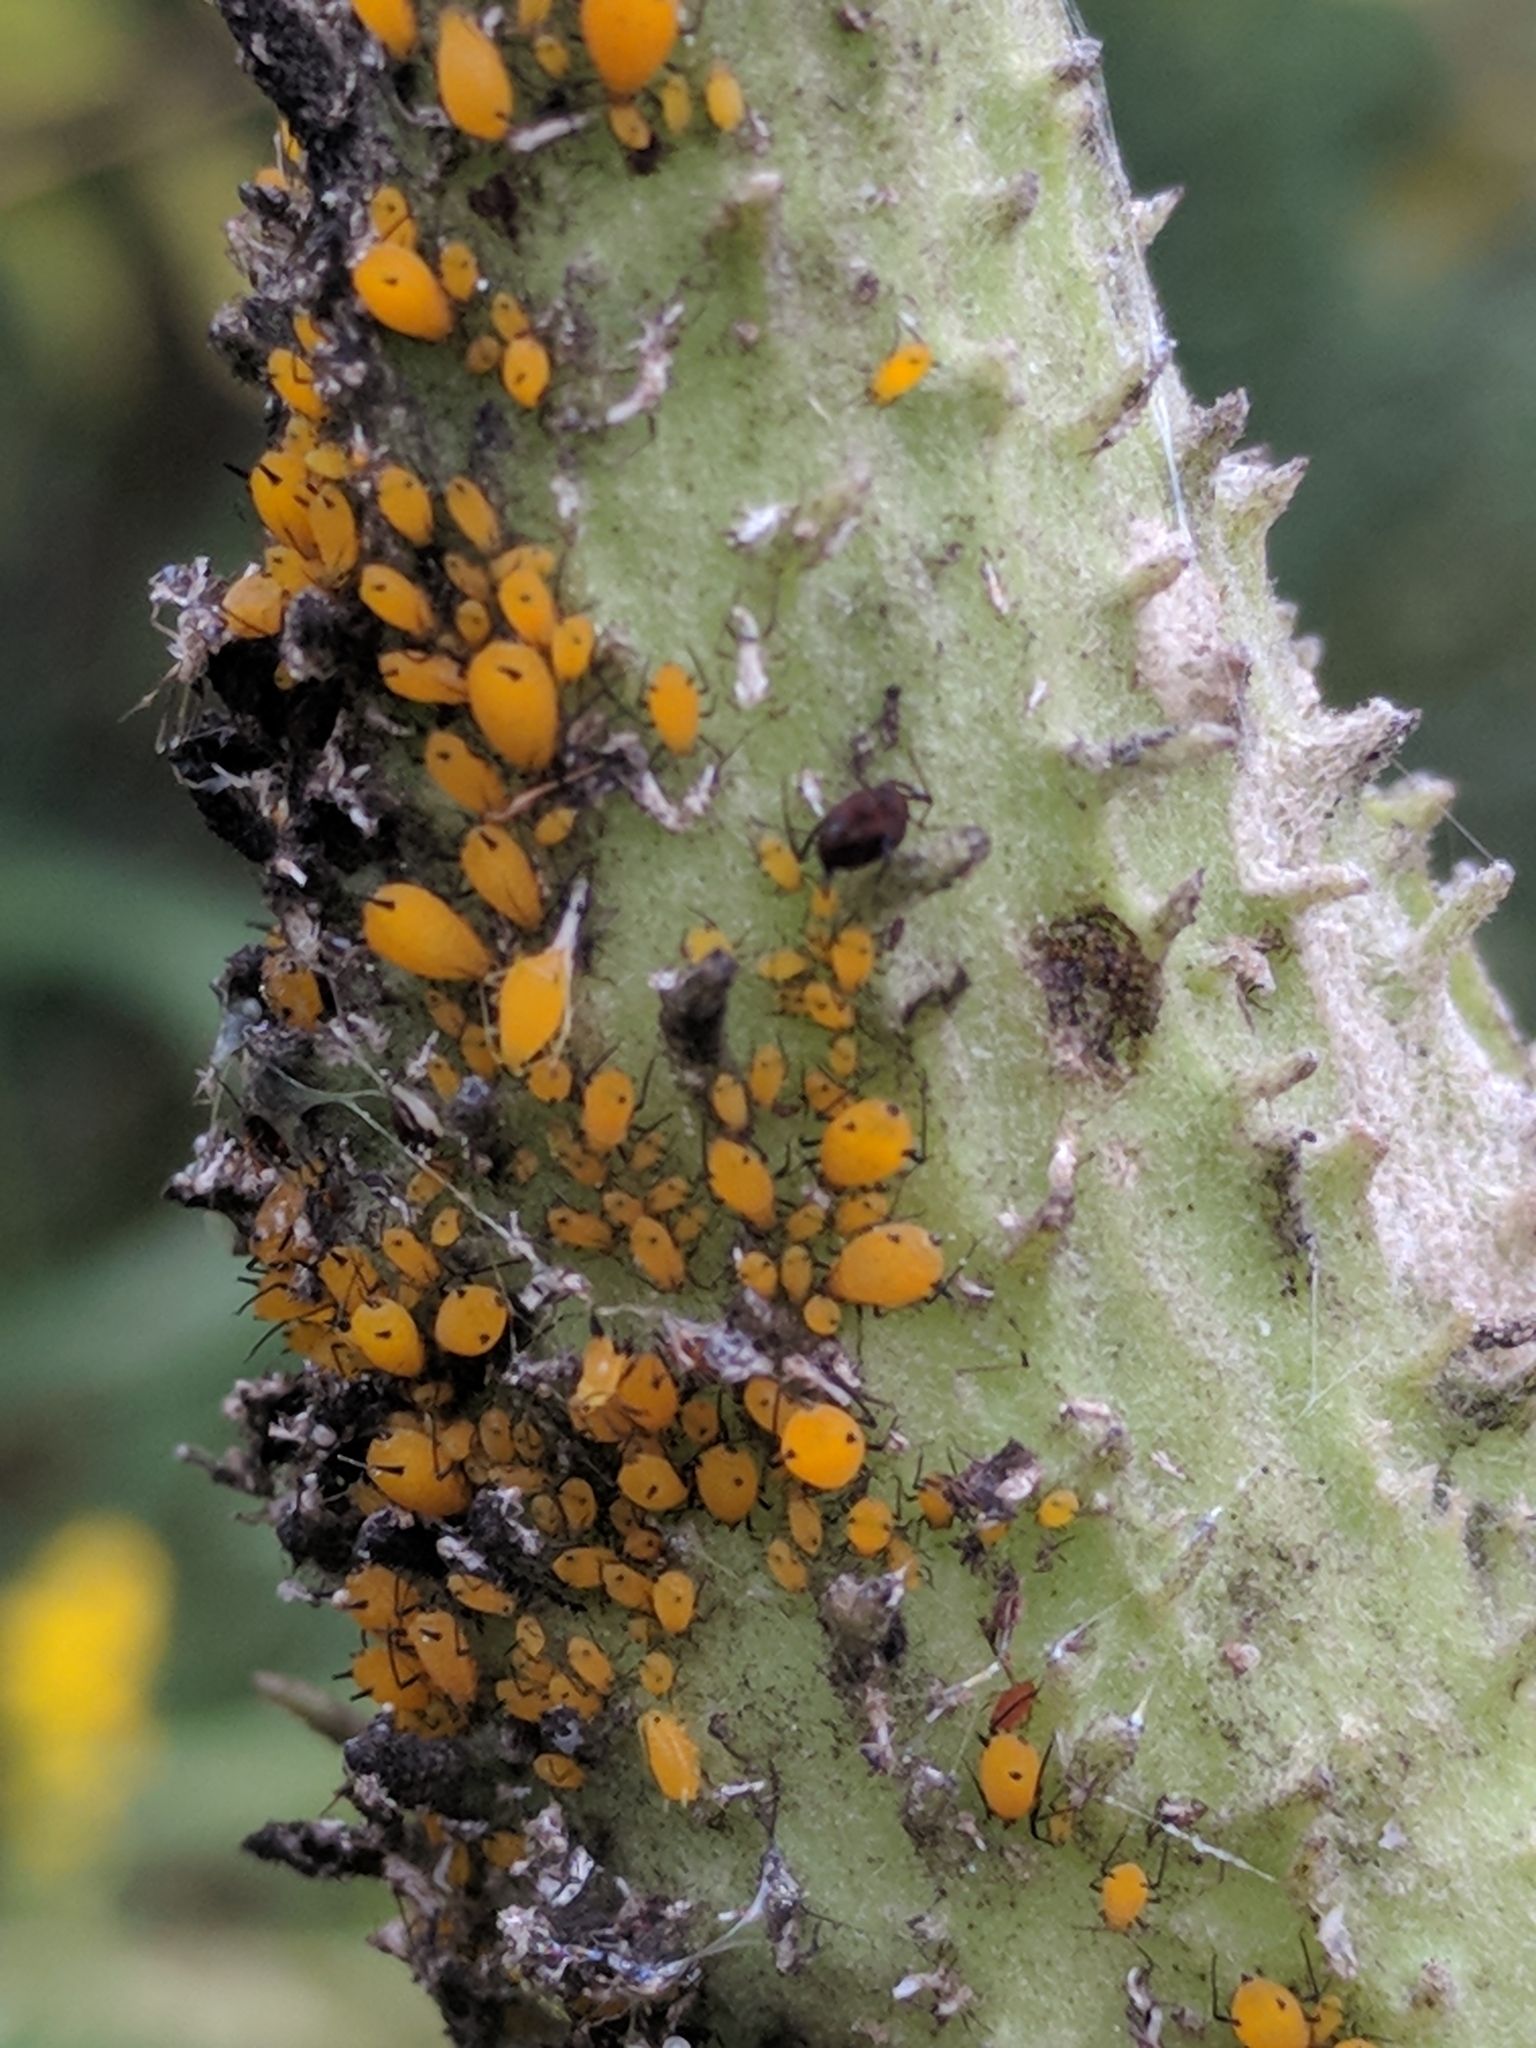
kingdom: Animalia
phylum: Arthropoda
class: Insecta
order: Hemiptera
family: Aphididae
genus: Aphis
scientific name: Aphis nerii
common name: Oleander aphid
